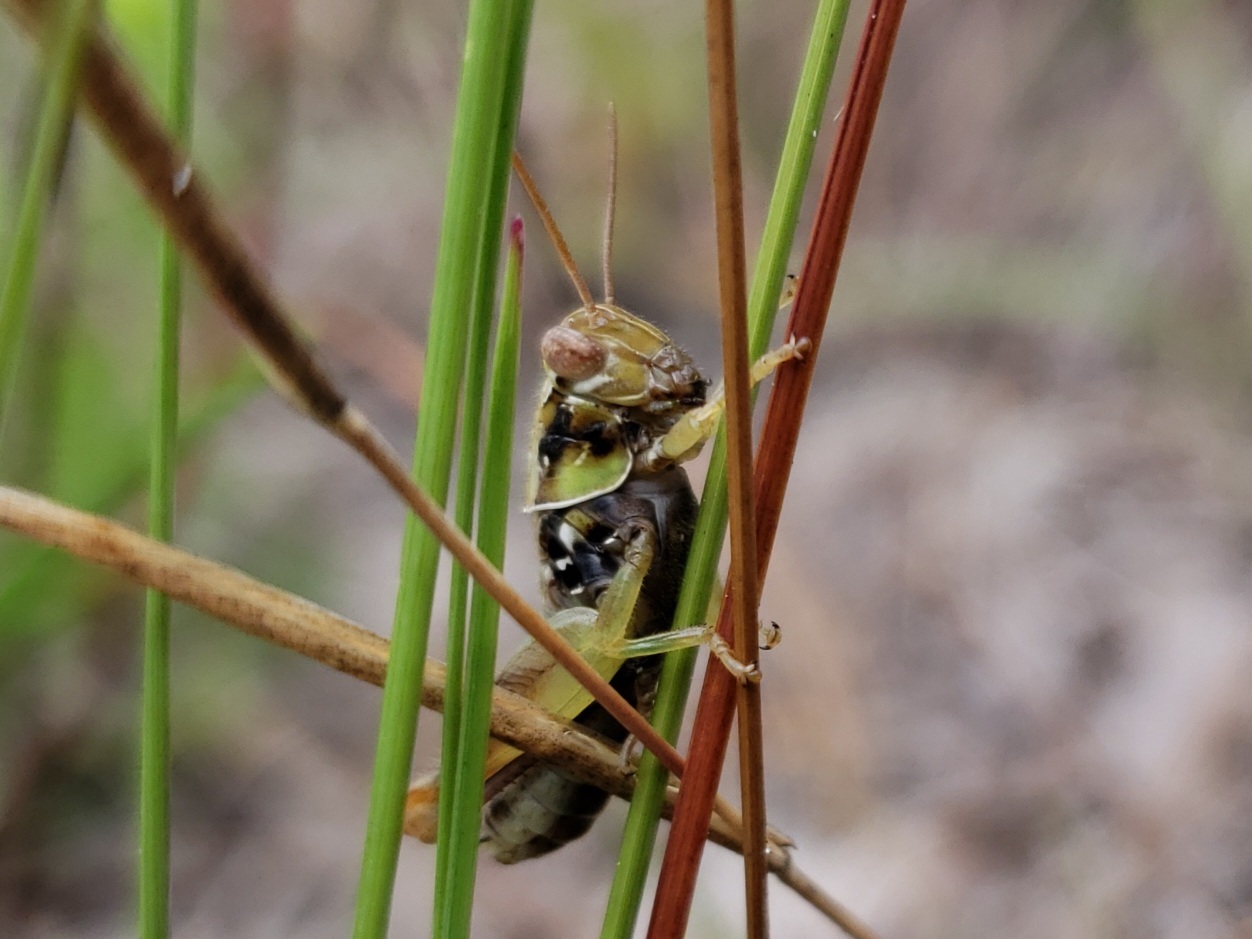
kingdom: Animalia
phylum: Arthropoda
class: Insecta
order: Orthoptera
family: Acrididae
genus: Eotettix
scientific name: Eotettix signatus
